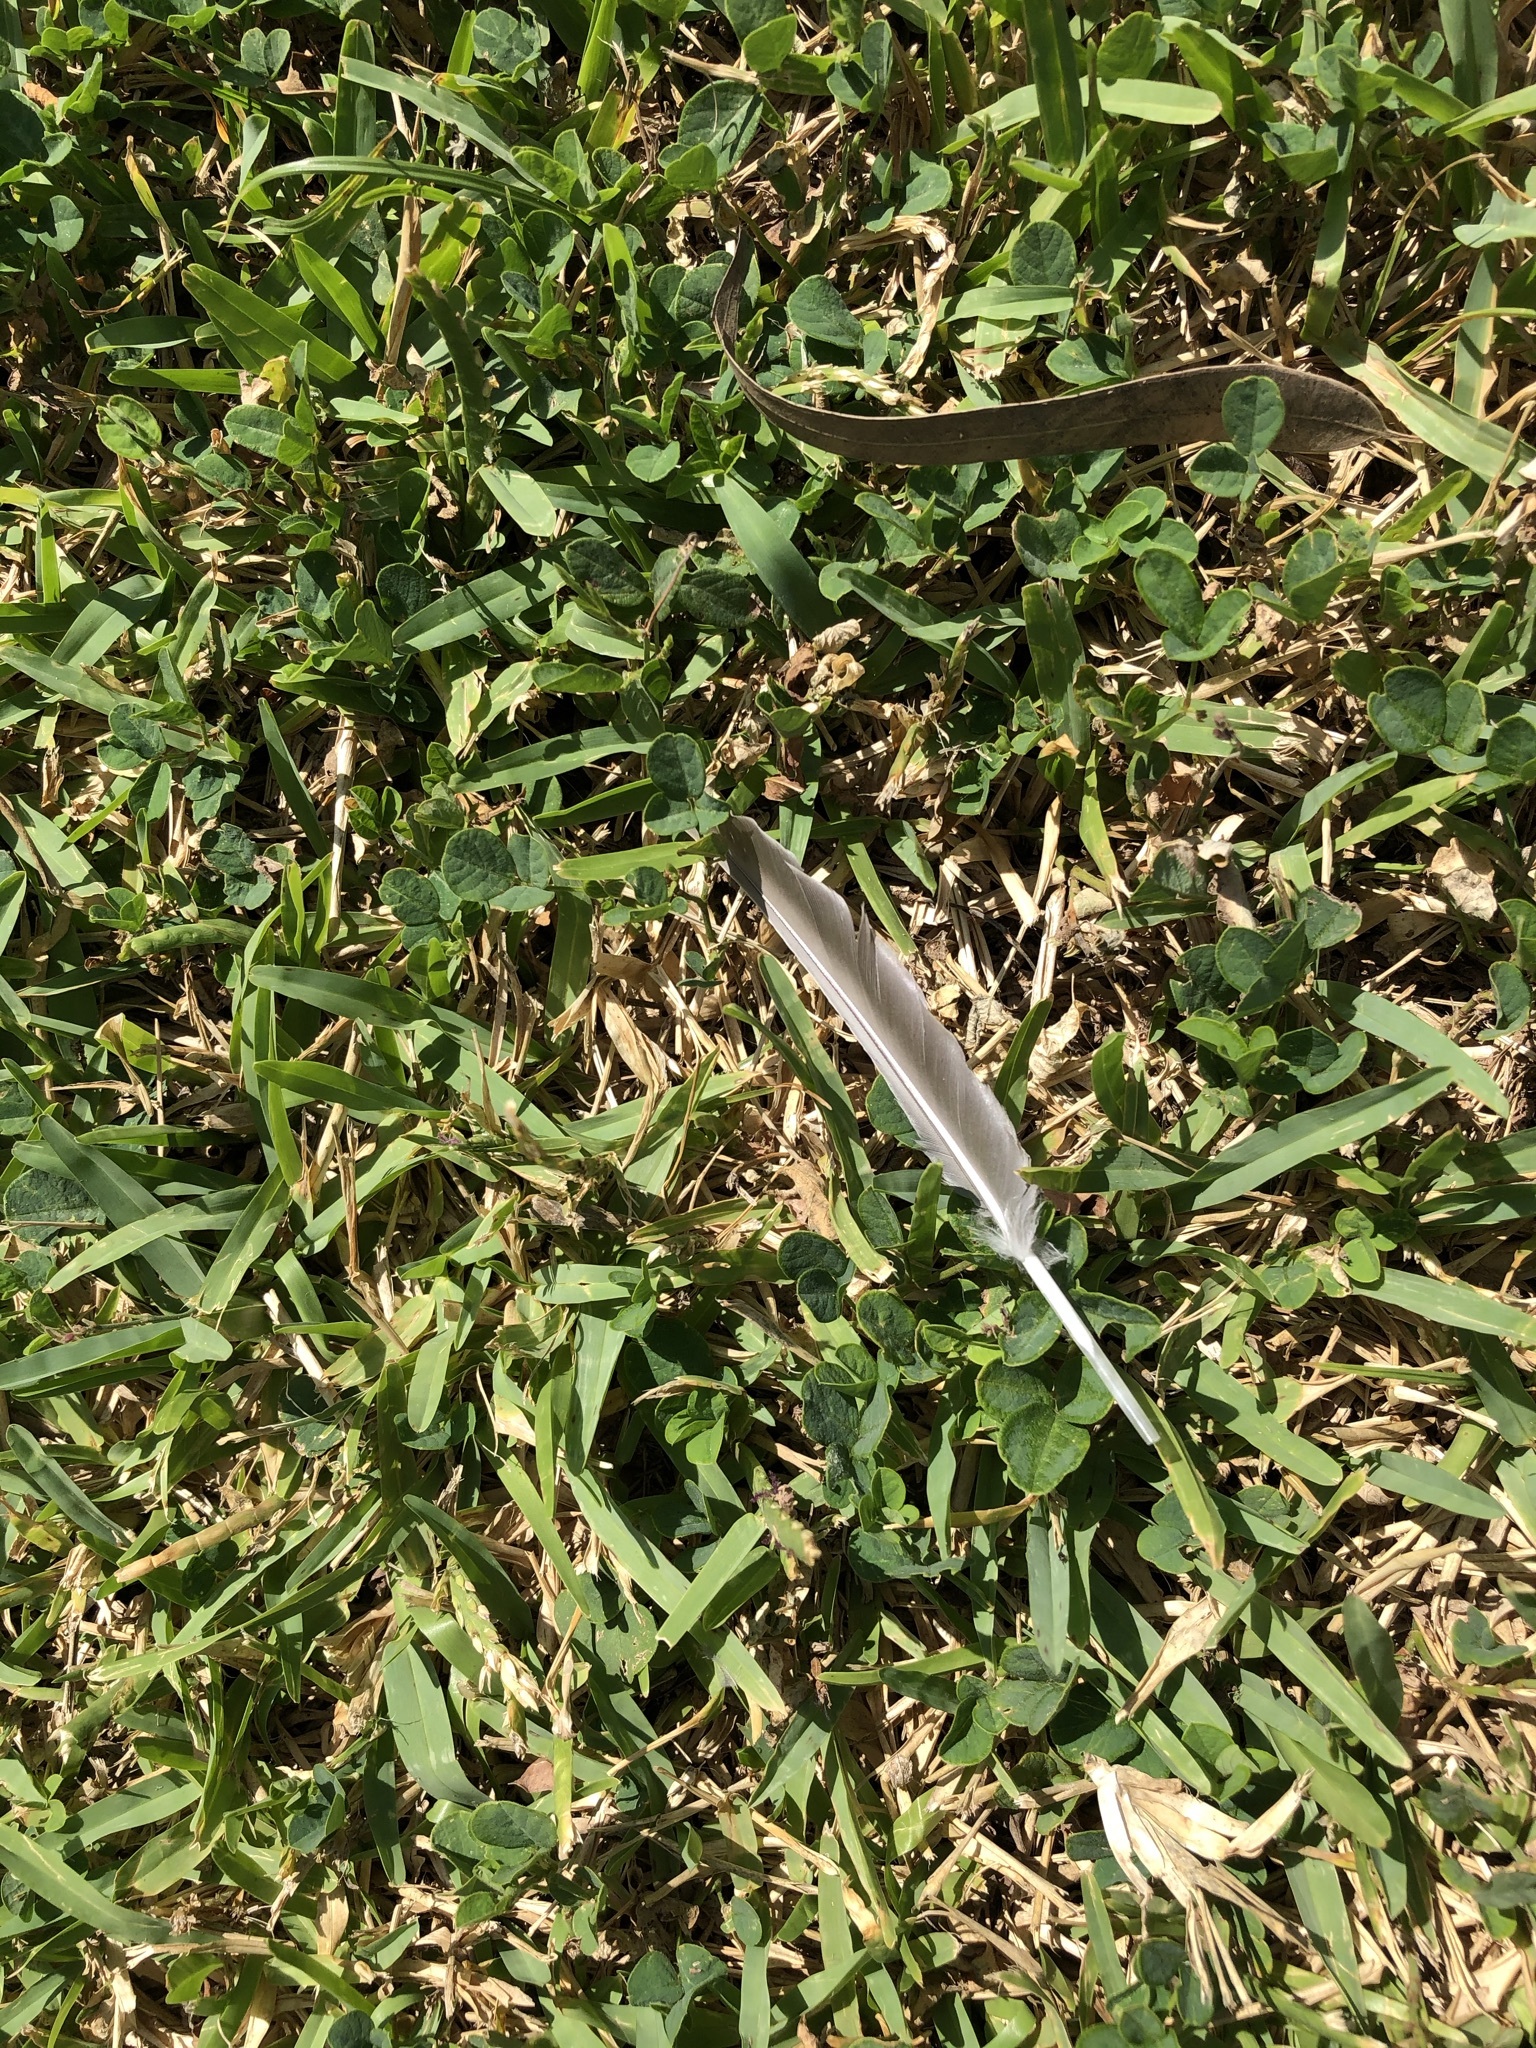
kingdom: Animalia
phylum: Chordata
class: Aves
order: Columbiformes
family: Columbidae
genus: Columba
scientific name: Columba livia
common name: Rock pigeon
